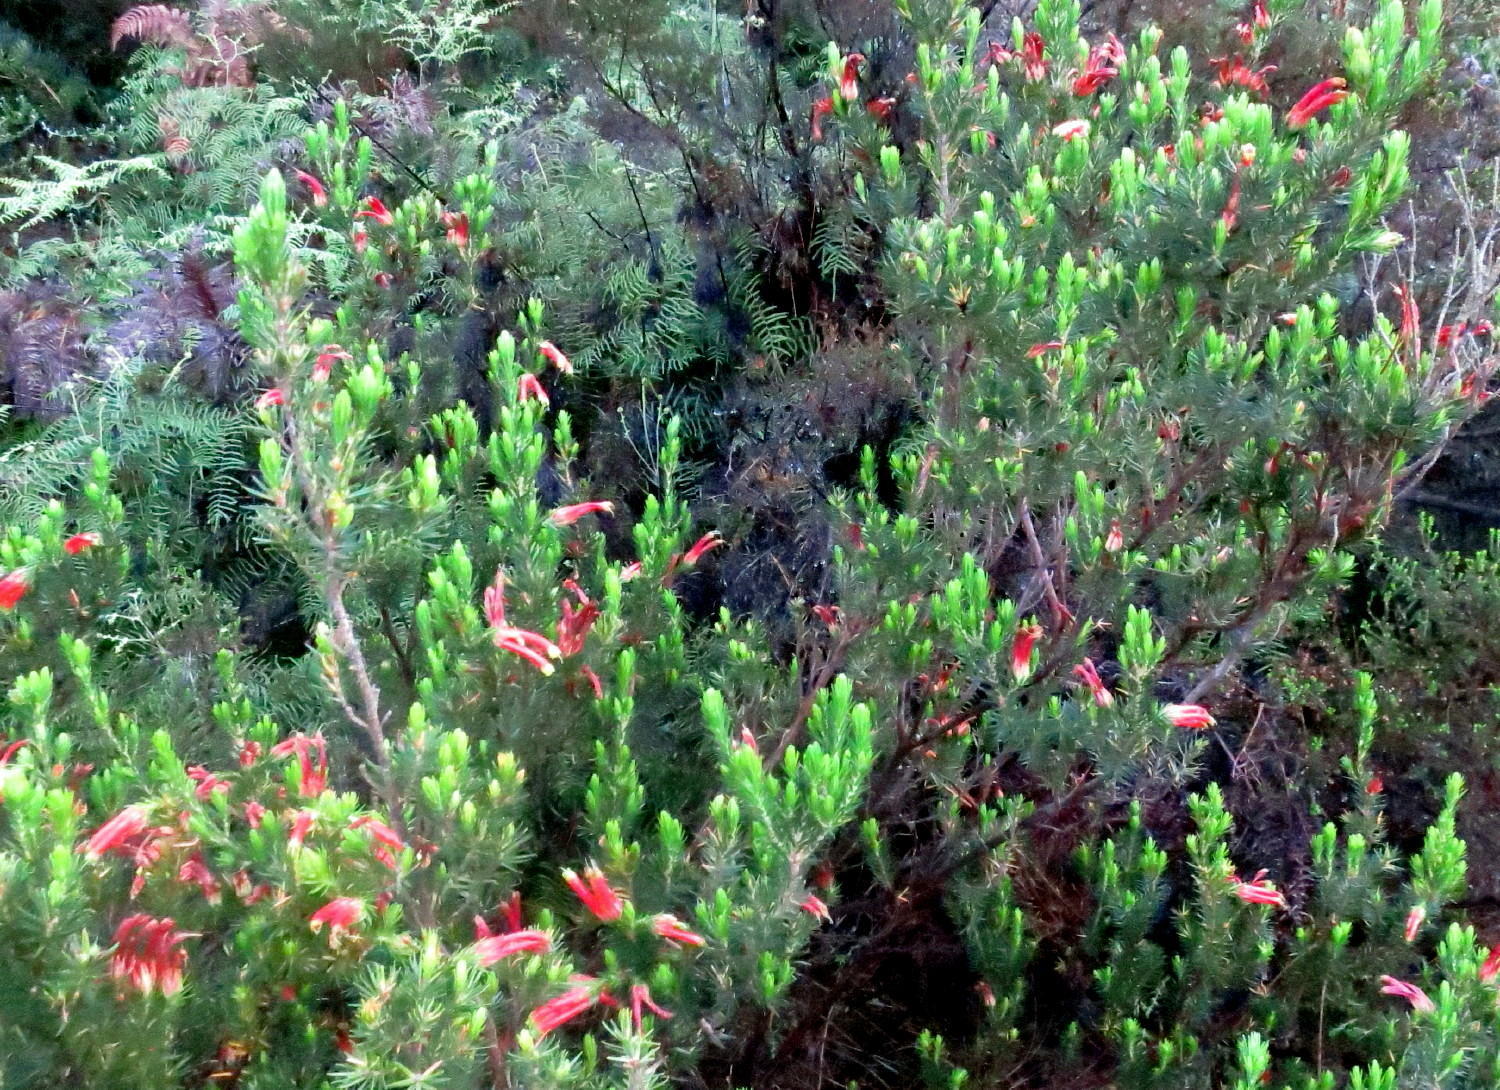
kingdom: Plantae
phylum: Tracheophyta
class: Magnoliopsida
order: Ericales
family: Ericaceae
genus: Erica
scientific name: Erica unicolor
